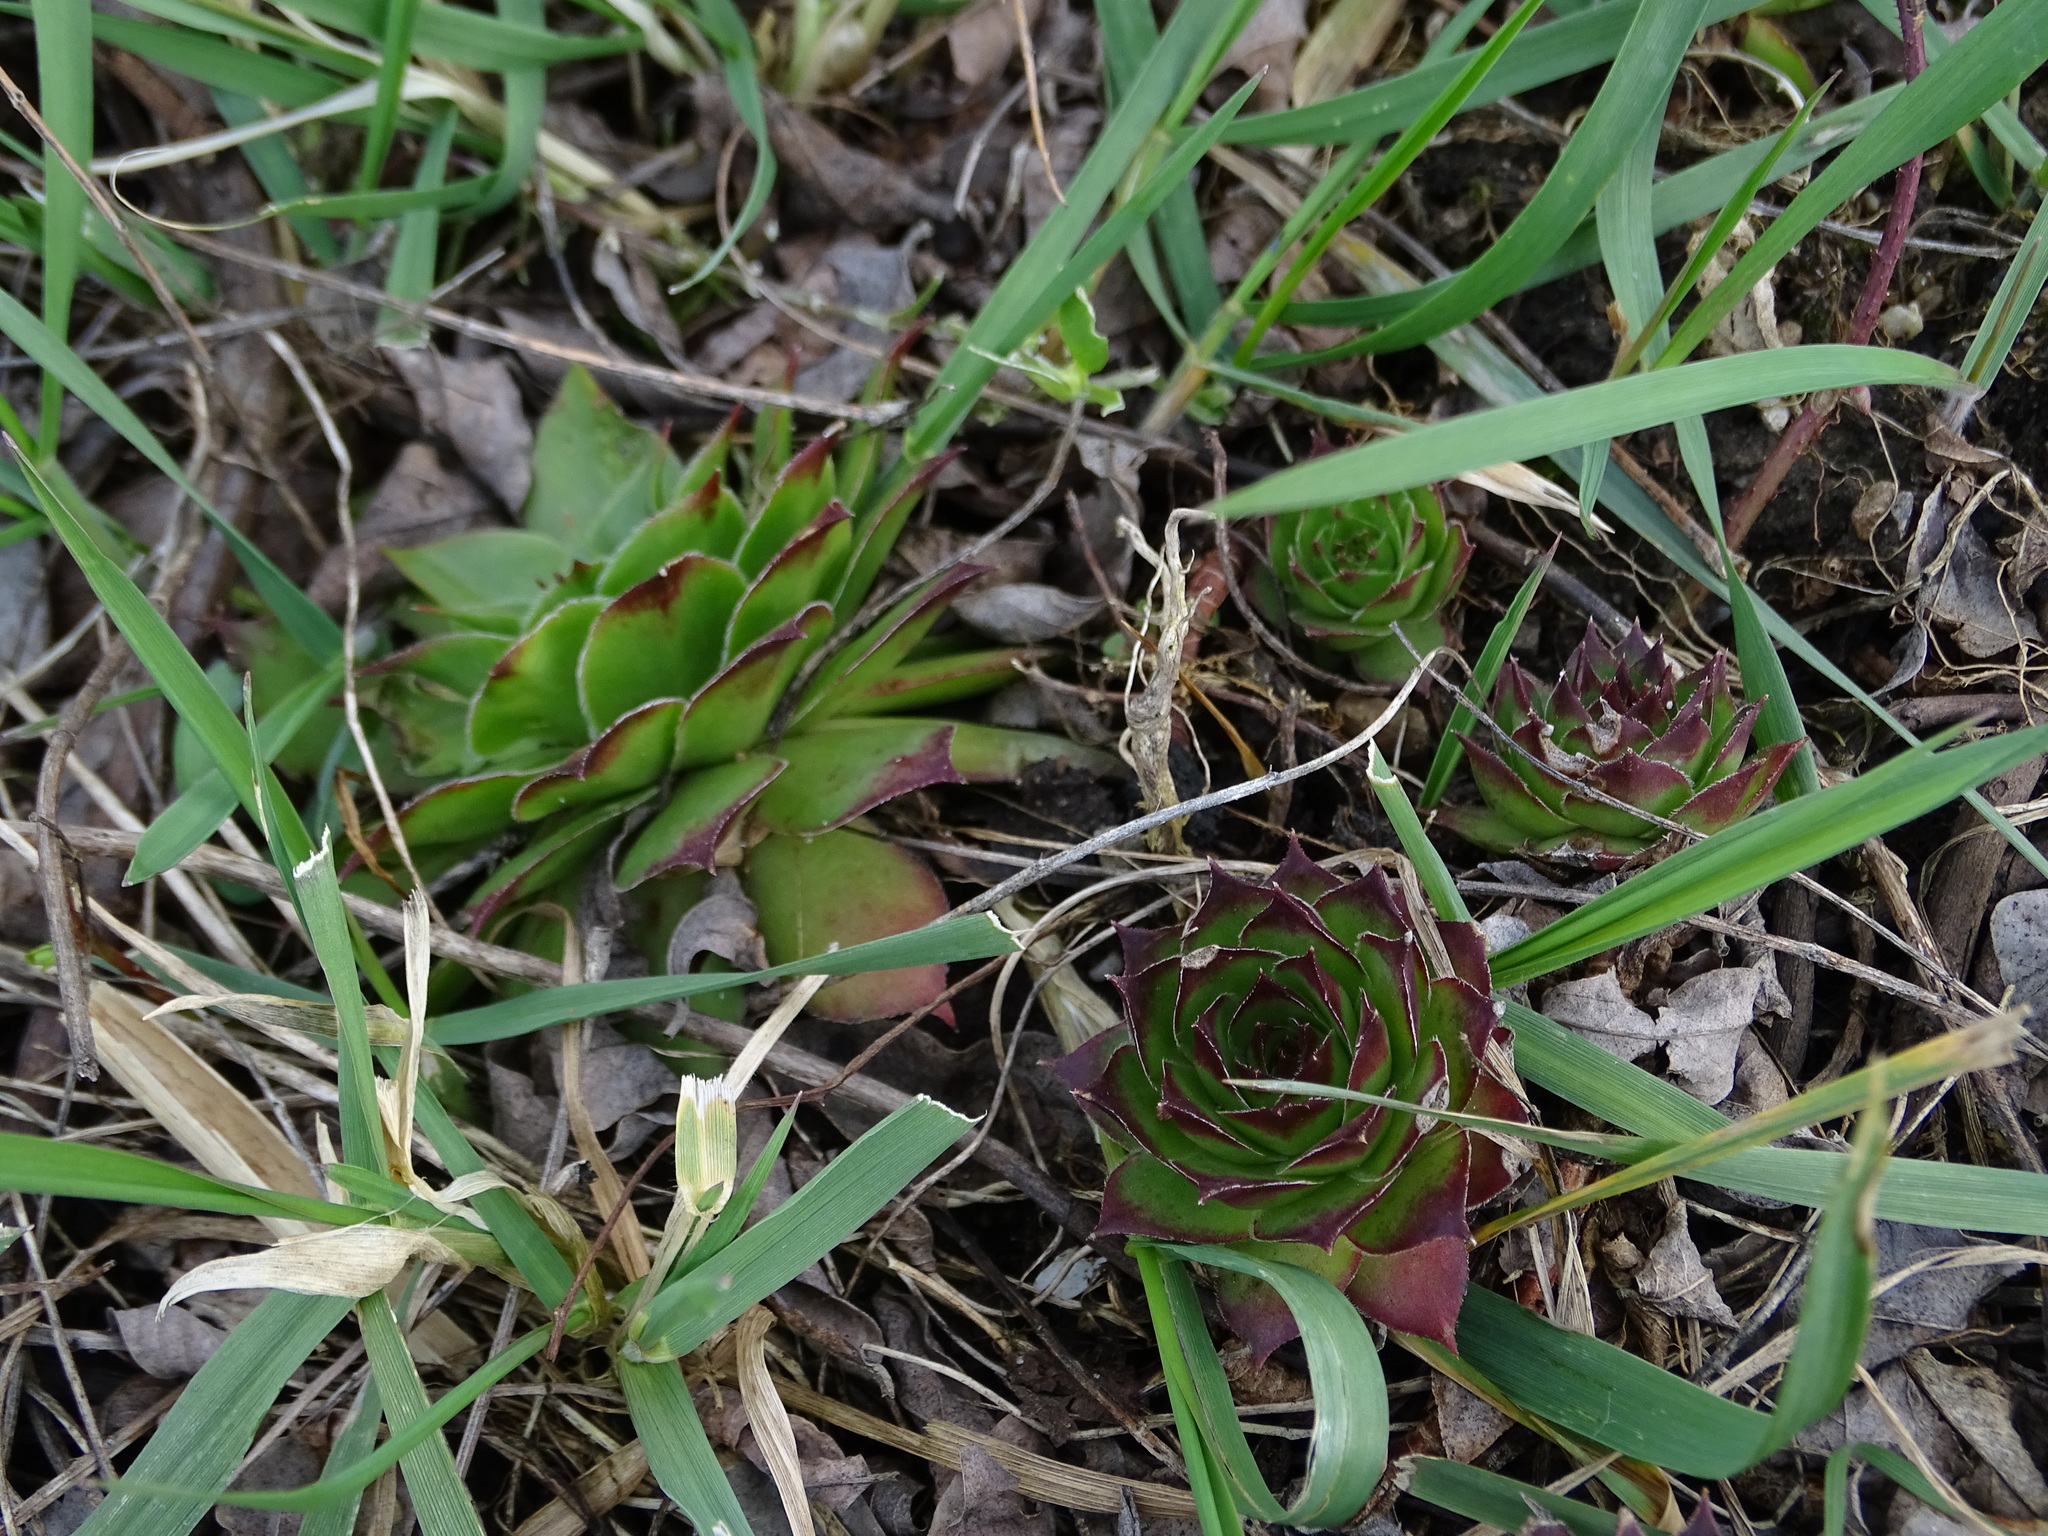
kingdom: Plantae
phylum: Tracheophyta
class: Magnoliopsida
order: Saxifragales
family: Crassulaceae
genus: Sempervivum
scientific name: Sempervivum tectorum
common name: House-leek
